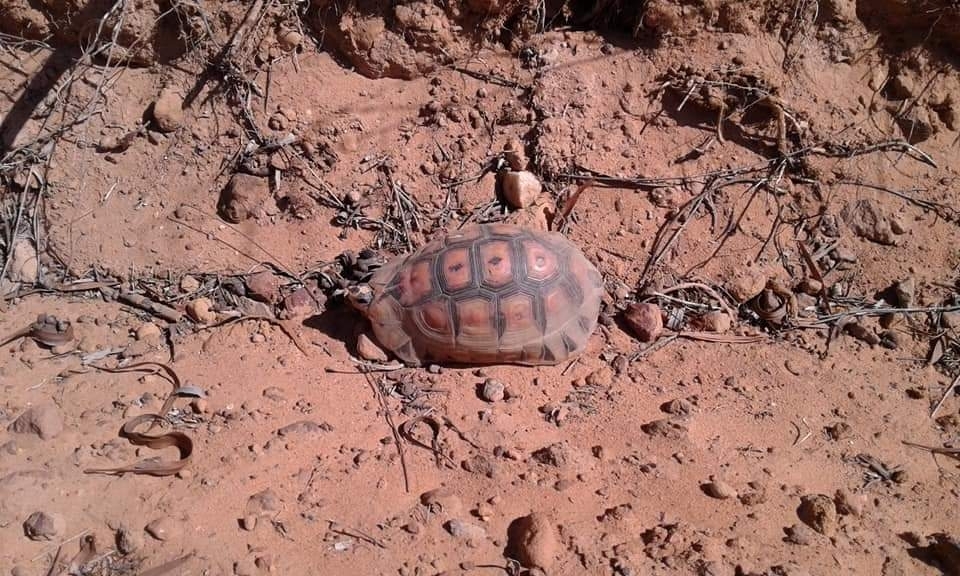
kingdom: Animalia
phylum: Chordata
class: Testudines
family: Testudinidae
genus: Chersina
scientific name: Chersina angulata
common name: South african bowsprit tortoise
